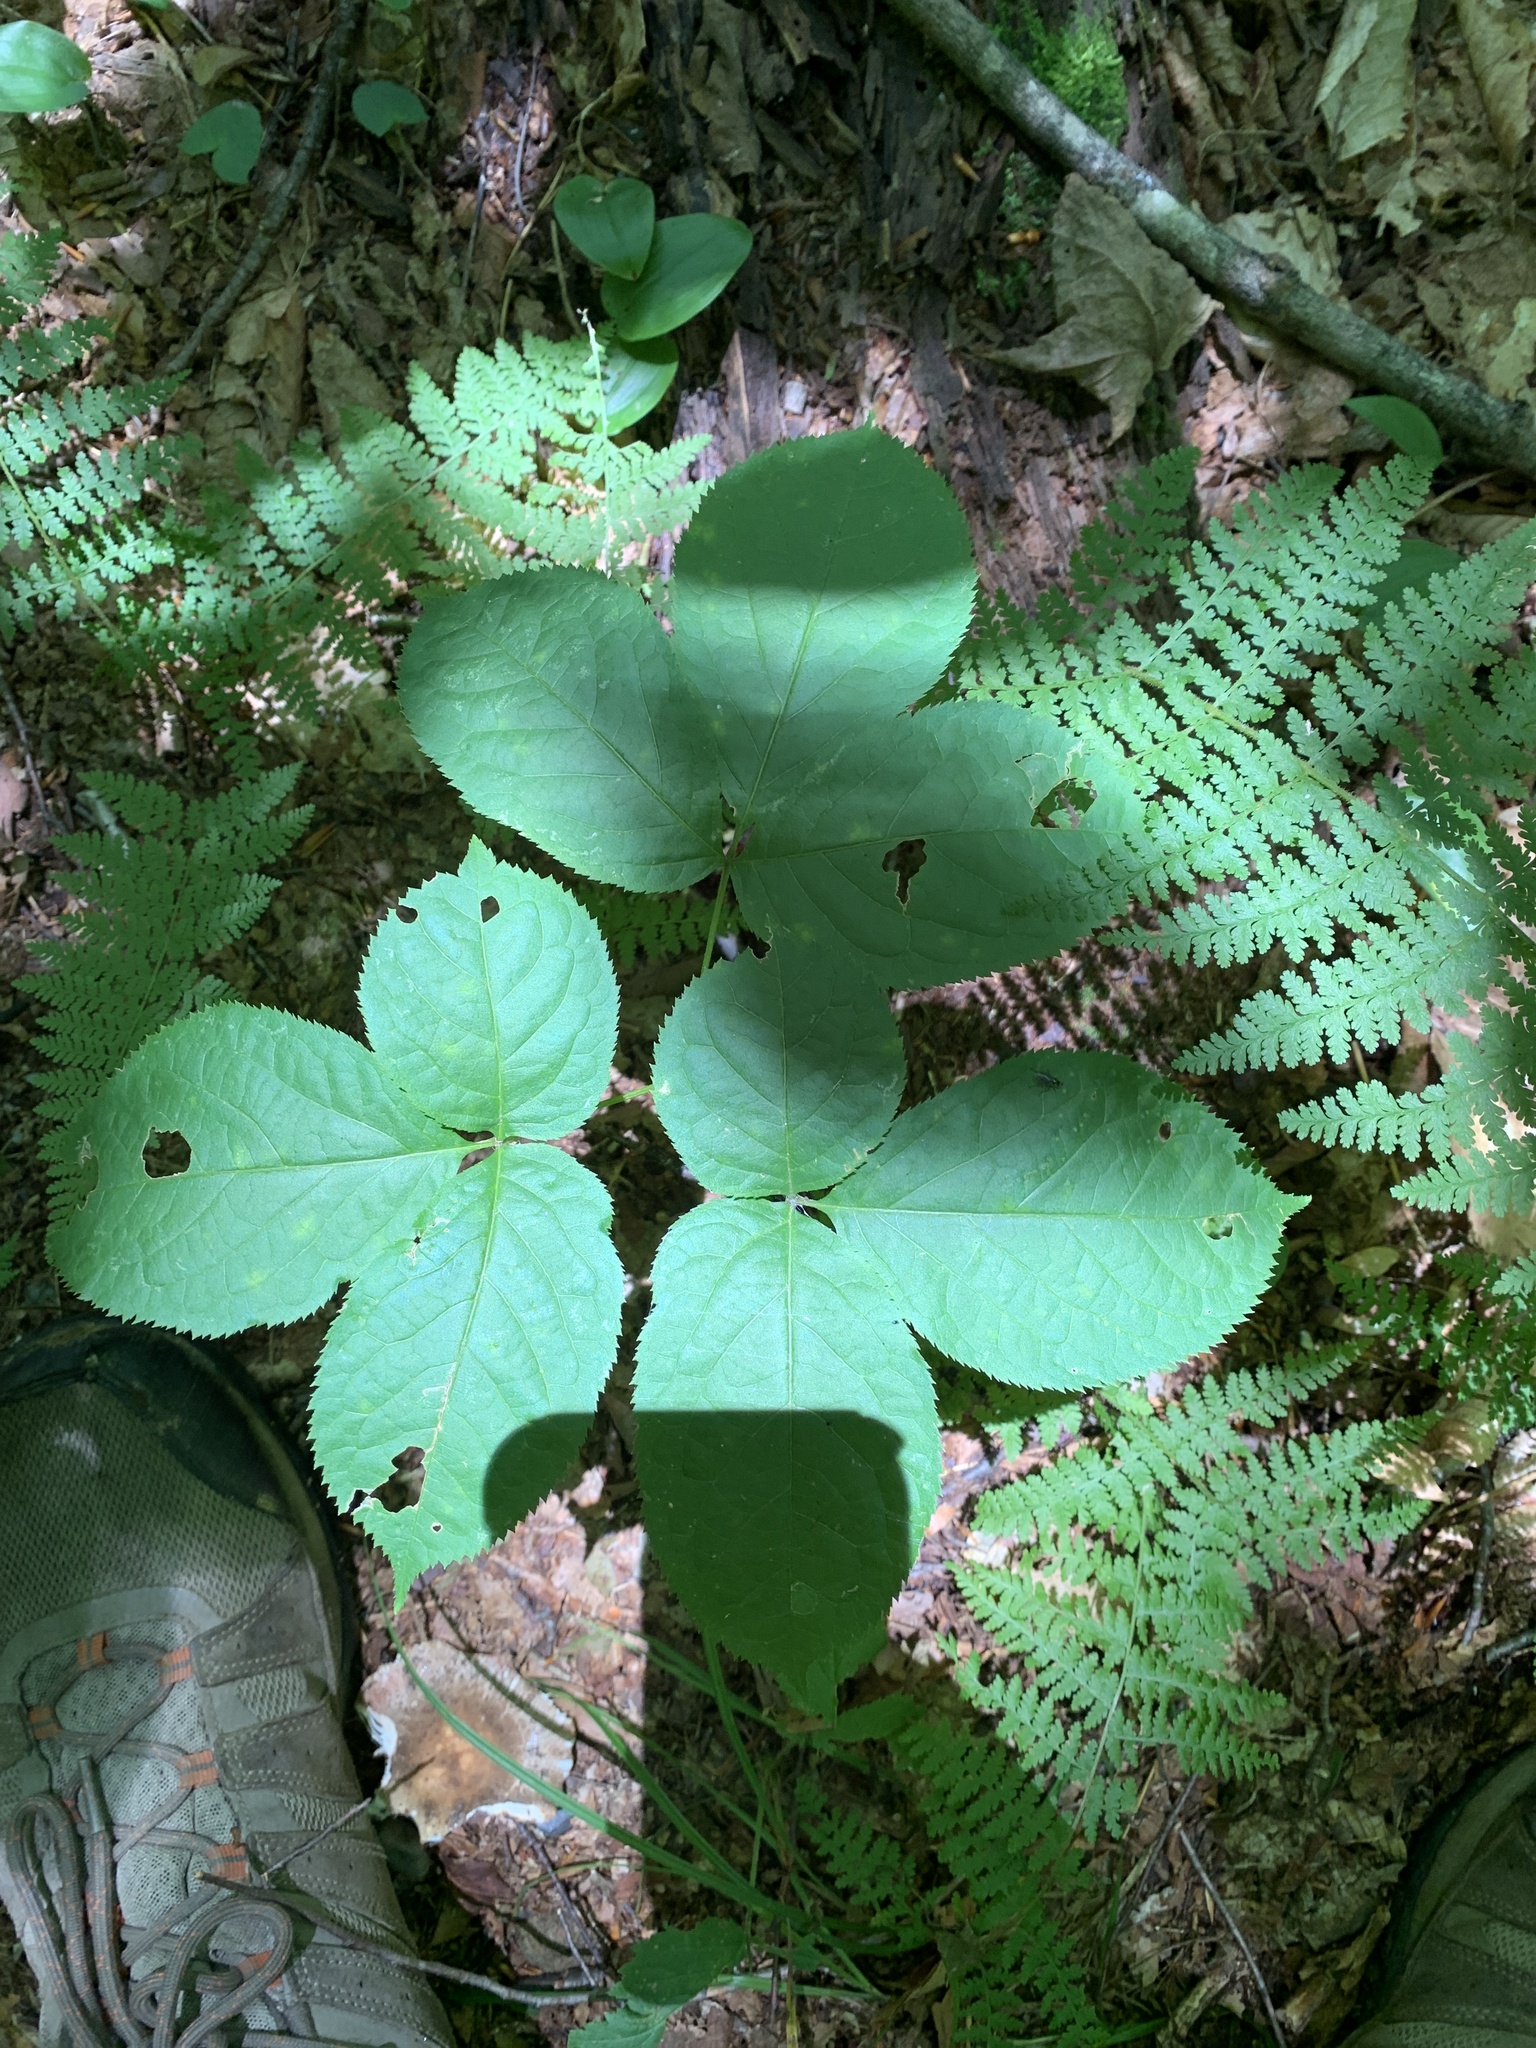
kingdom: Plantae
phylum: Tracheophyta
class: Magnoliopsida
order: Apiales
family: Araliaceae
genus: Aralia
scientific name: Aralia nudicaulis
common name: Wild sarsaparilla
